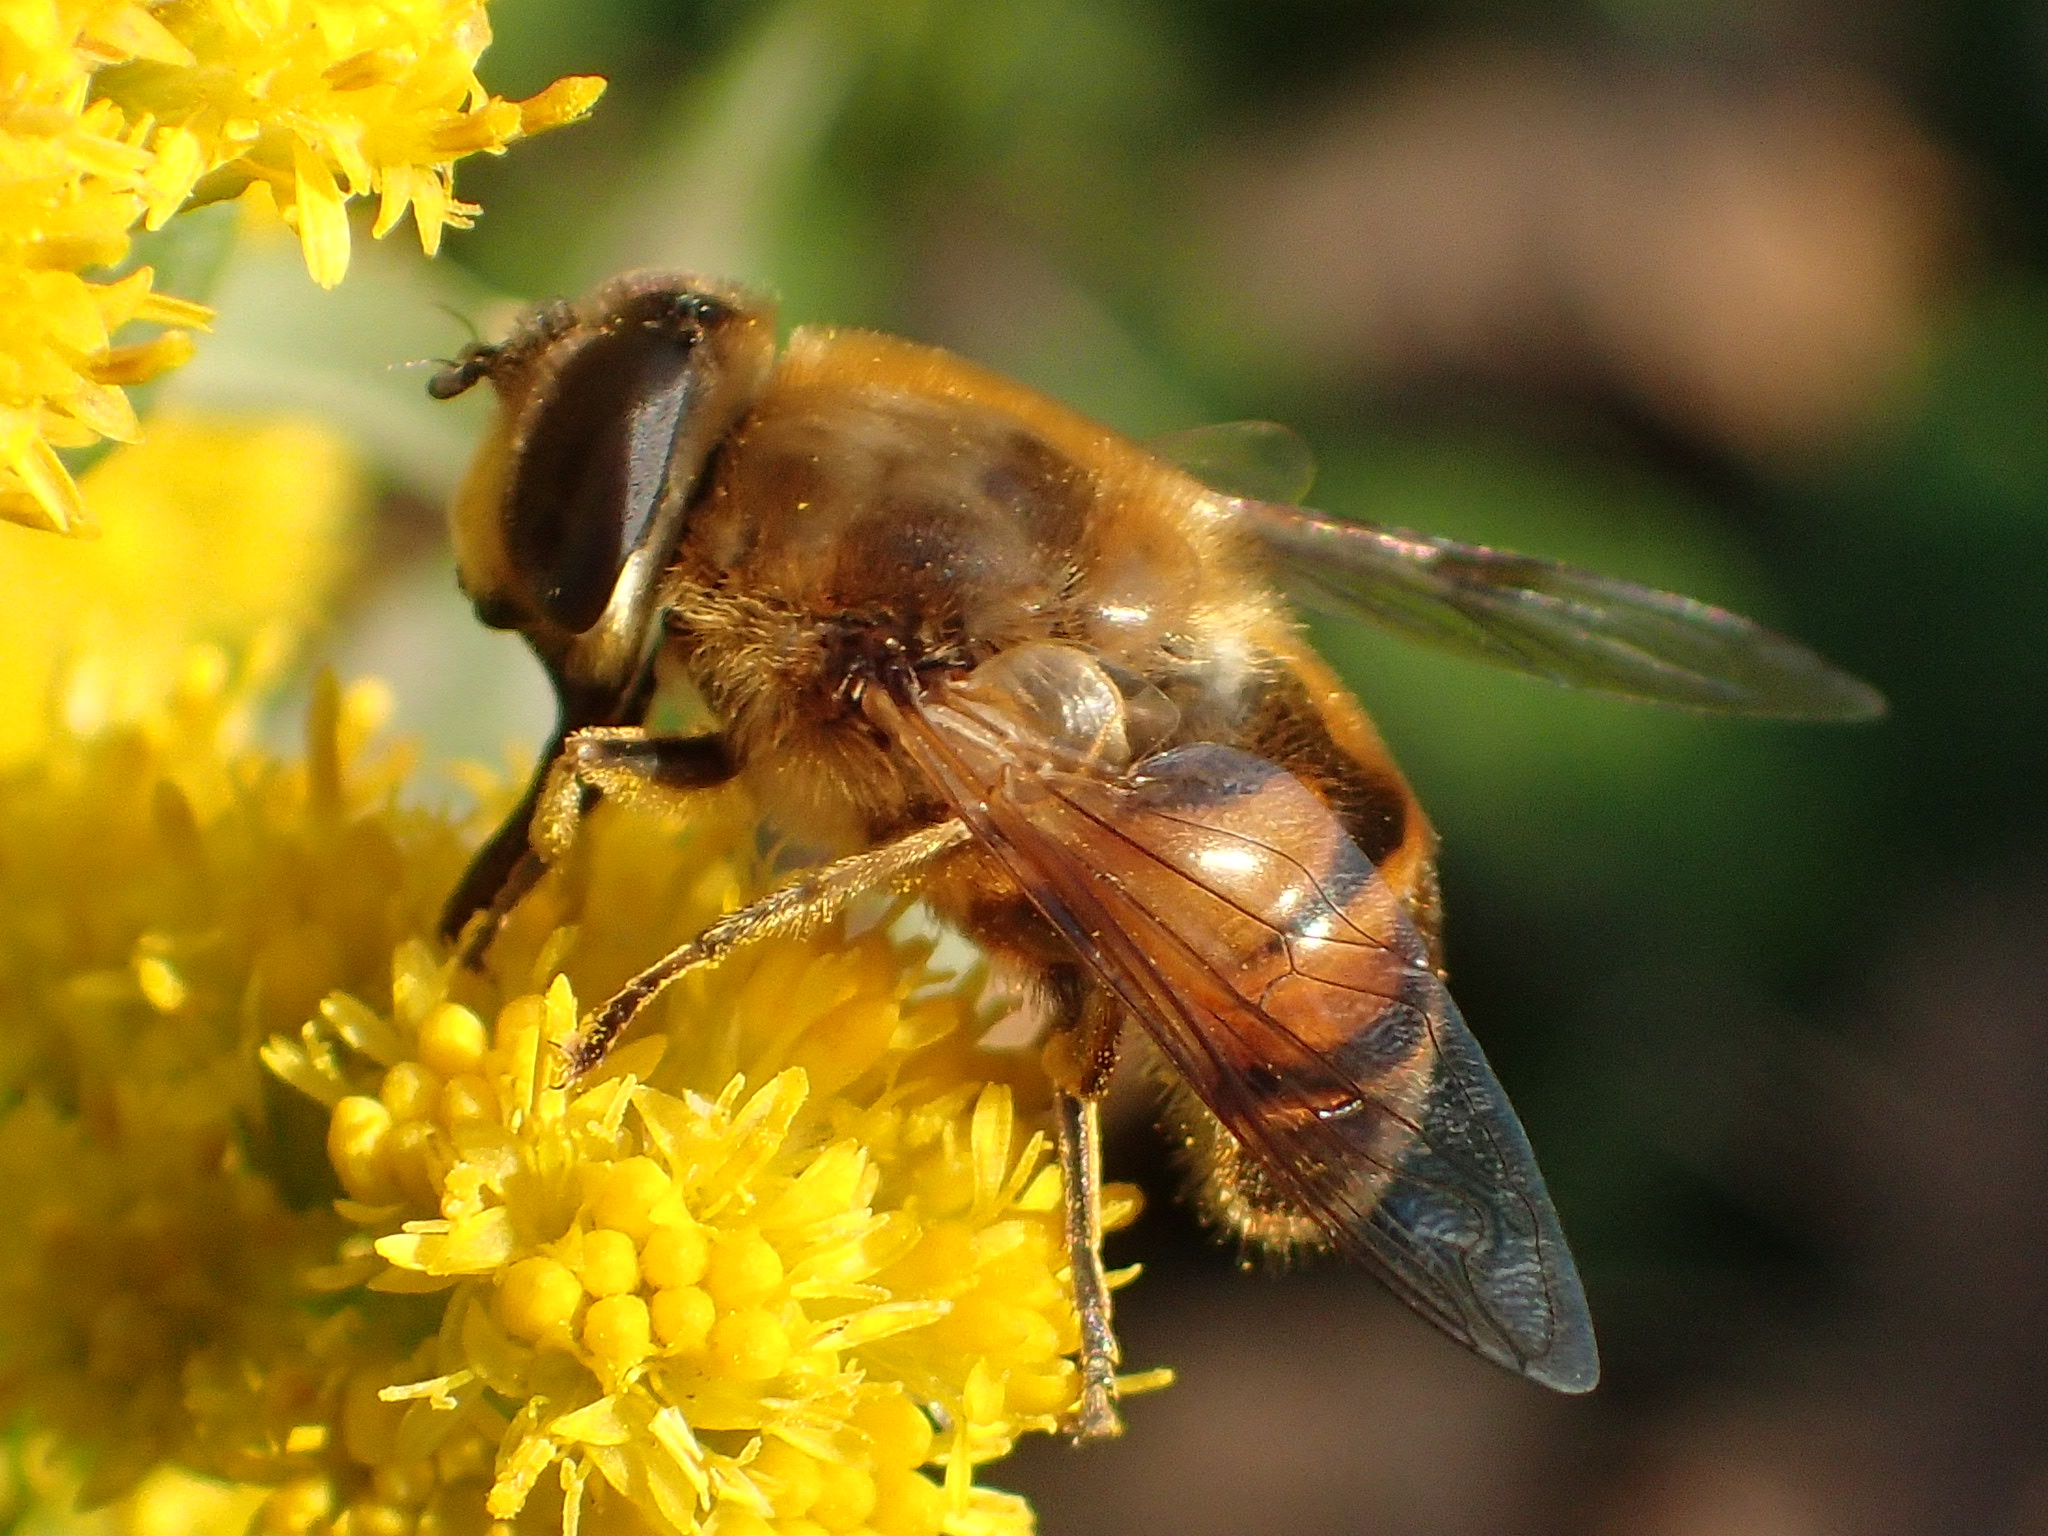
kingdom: Animalia
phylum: Arthropoda
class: Insecta
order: Diptera
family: Syrphidae
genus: Eristalis
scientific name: Eristalis tenax
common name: Drone fly
